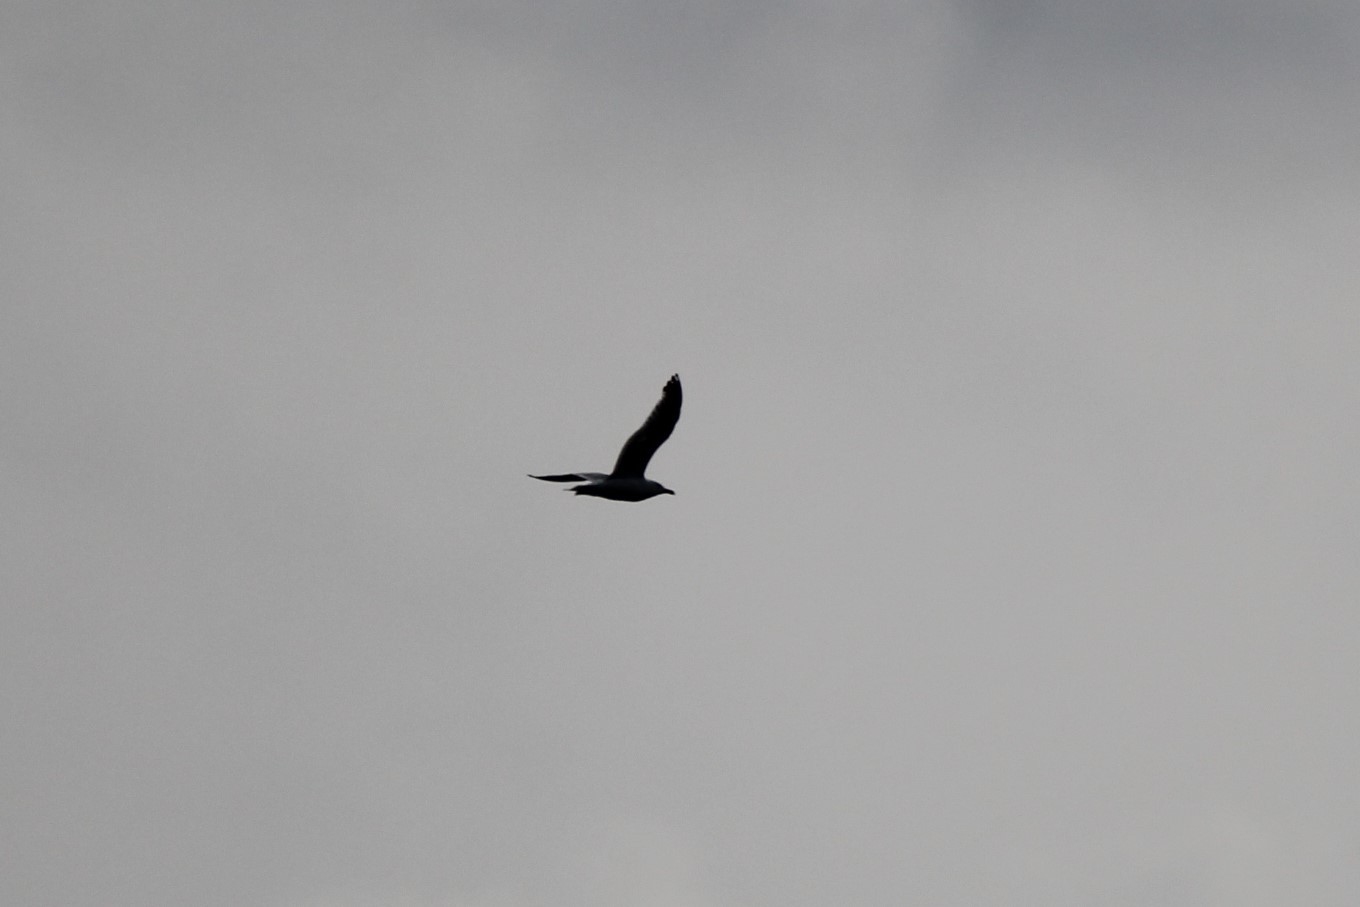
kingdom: Animalia
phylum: Chordata
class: Aves
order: Charadriiformes
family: Laridae
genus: Larus
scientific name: Larus argentatus
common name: Herring gull
